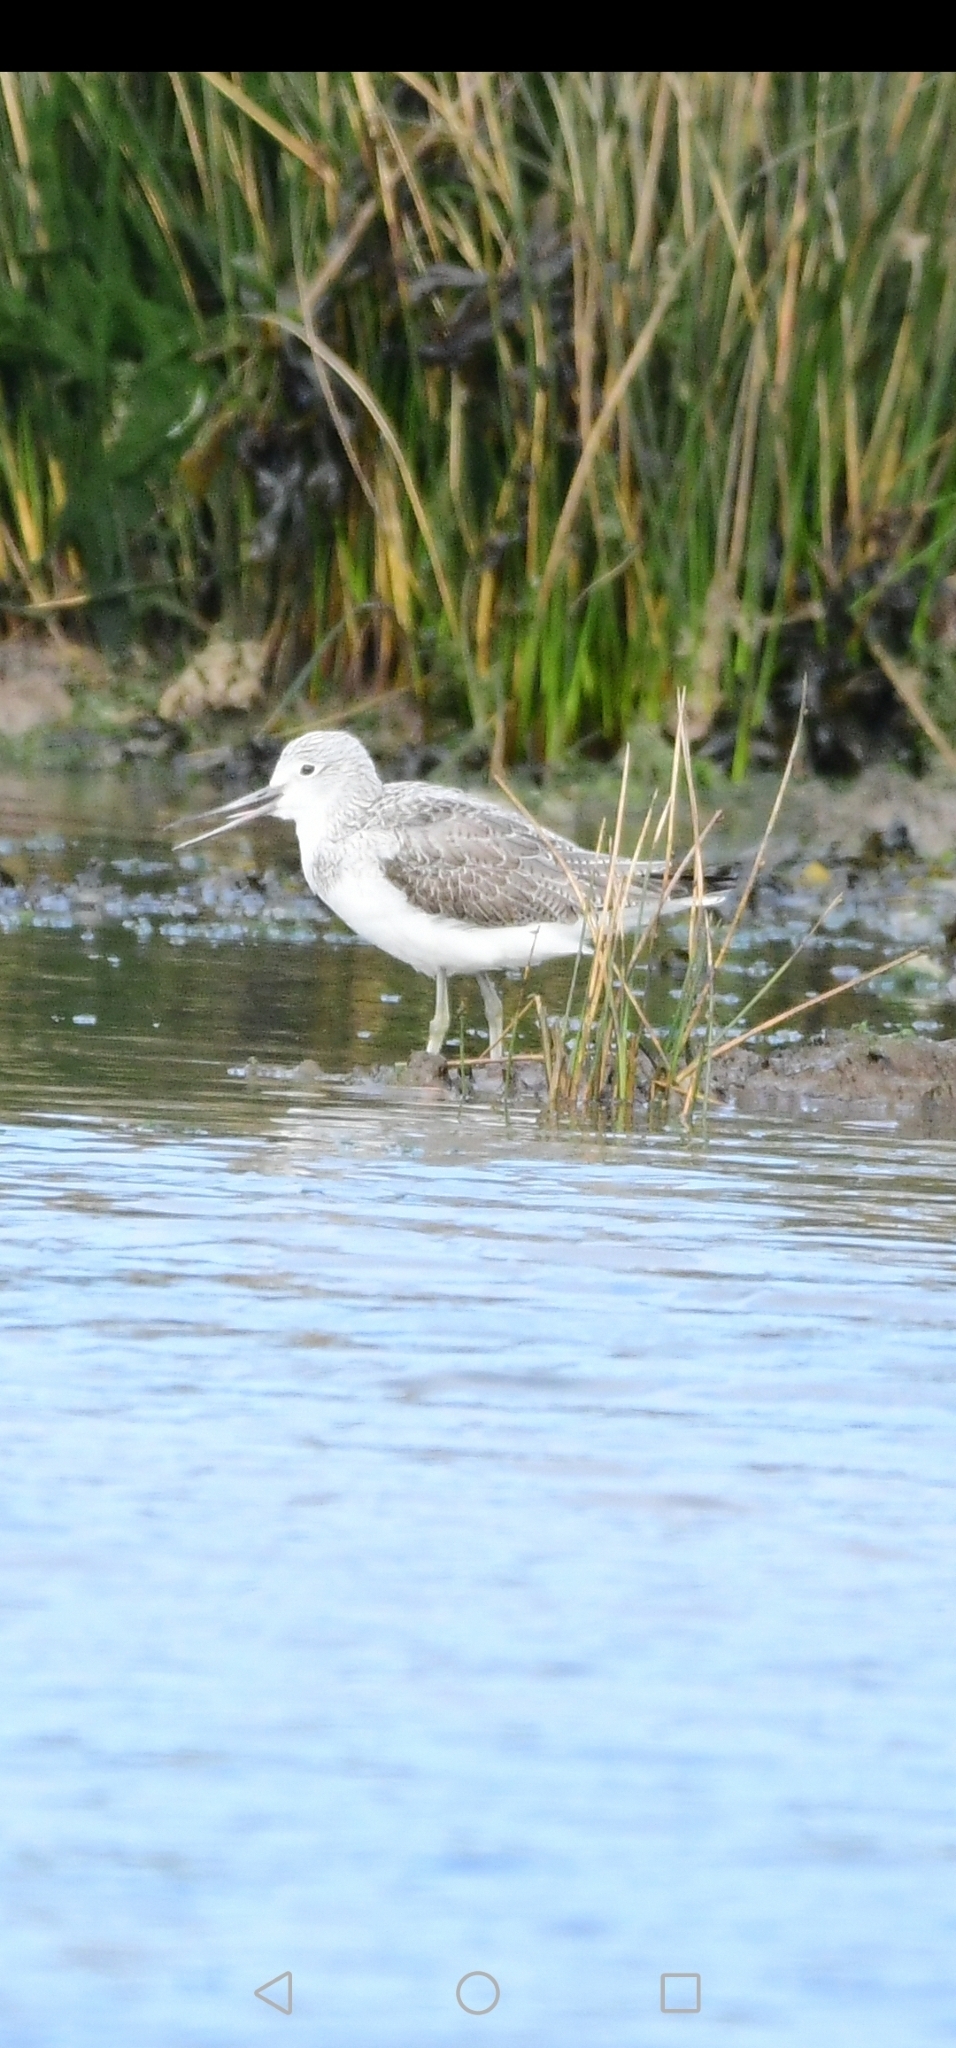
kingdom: Animalia
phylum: Chordata
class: Aves
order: Charadriiformes
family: Scolopacidae
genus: Tringa
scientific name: Tringa nebularia
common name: Common greenshank
